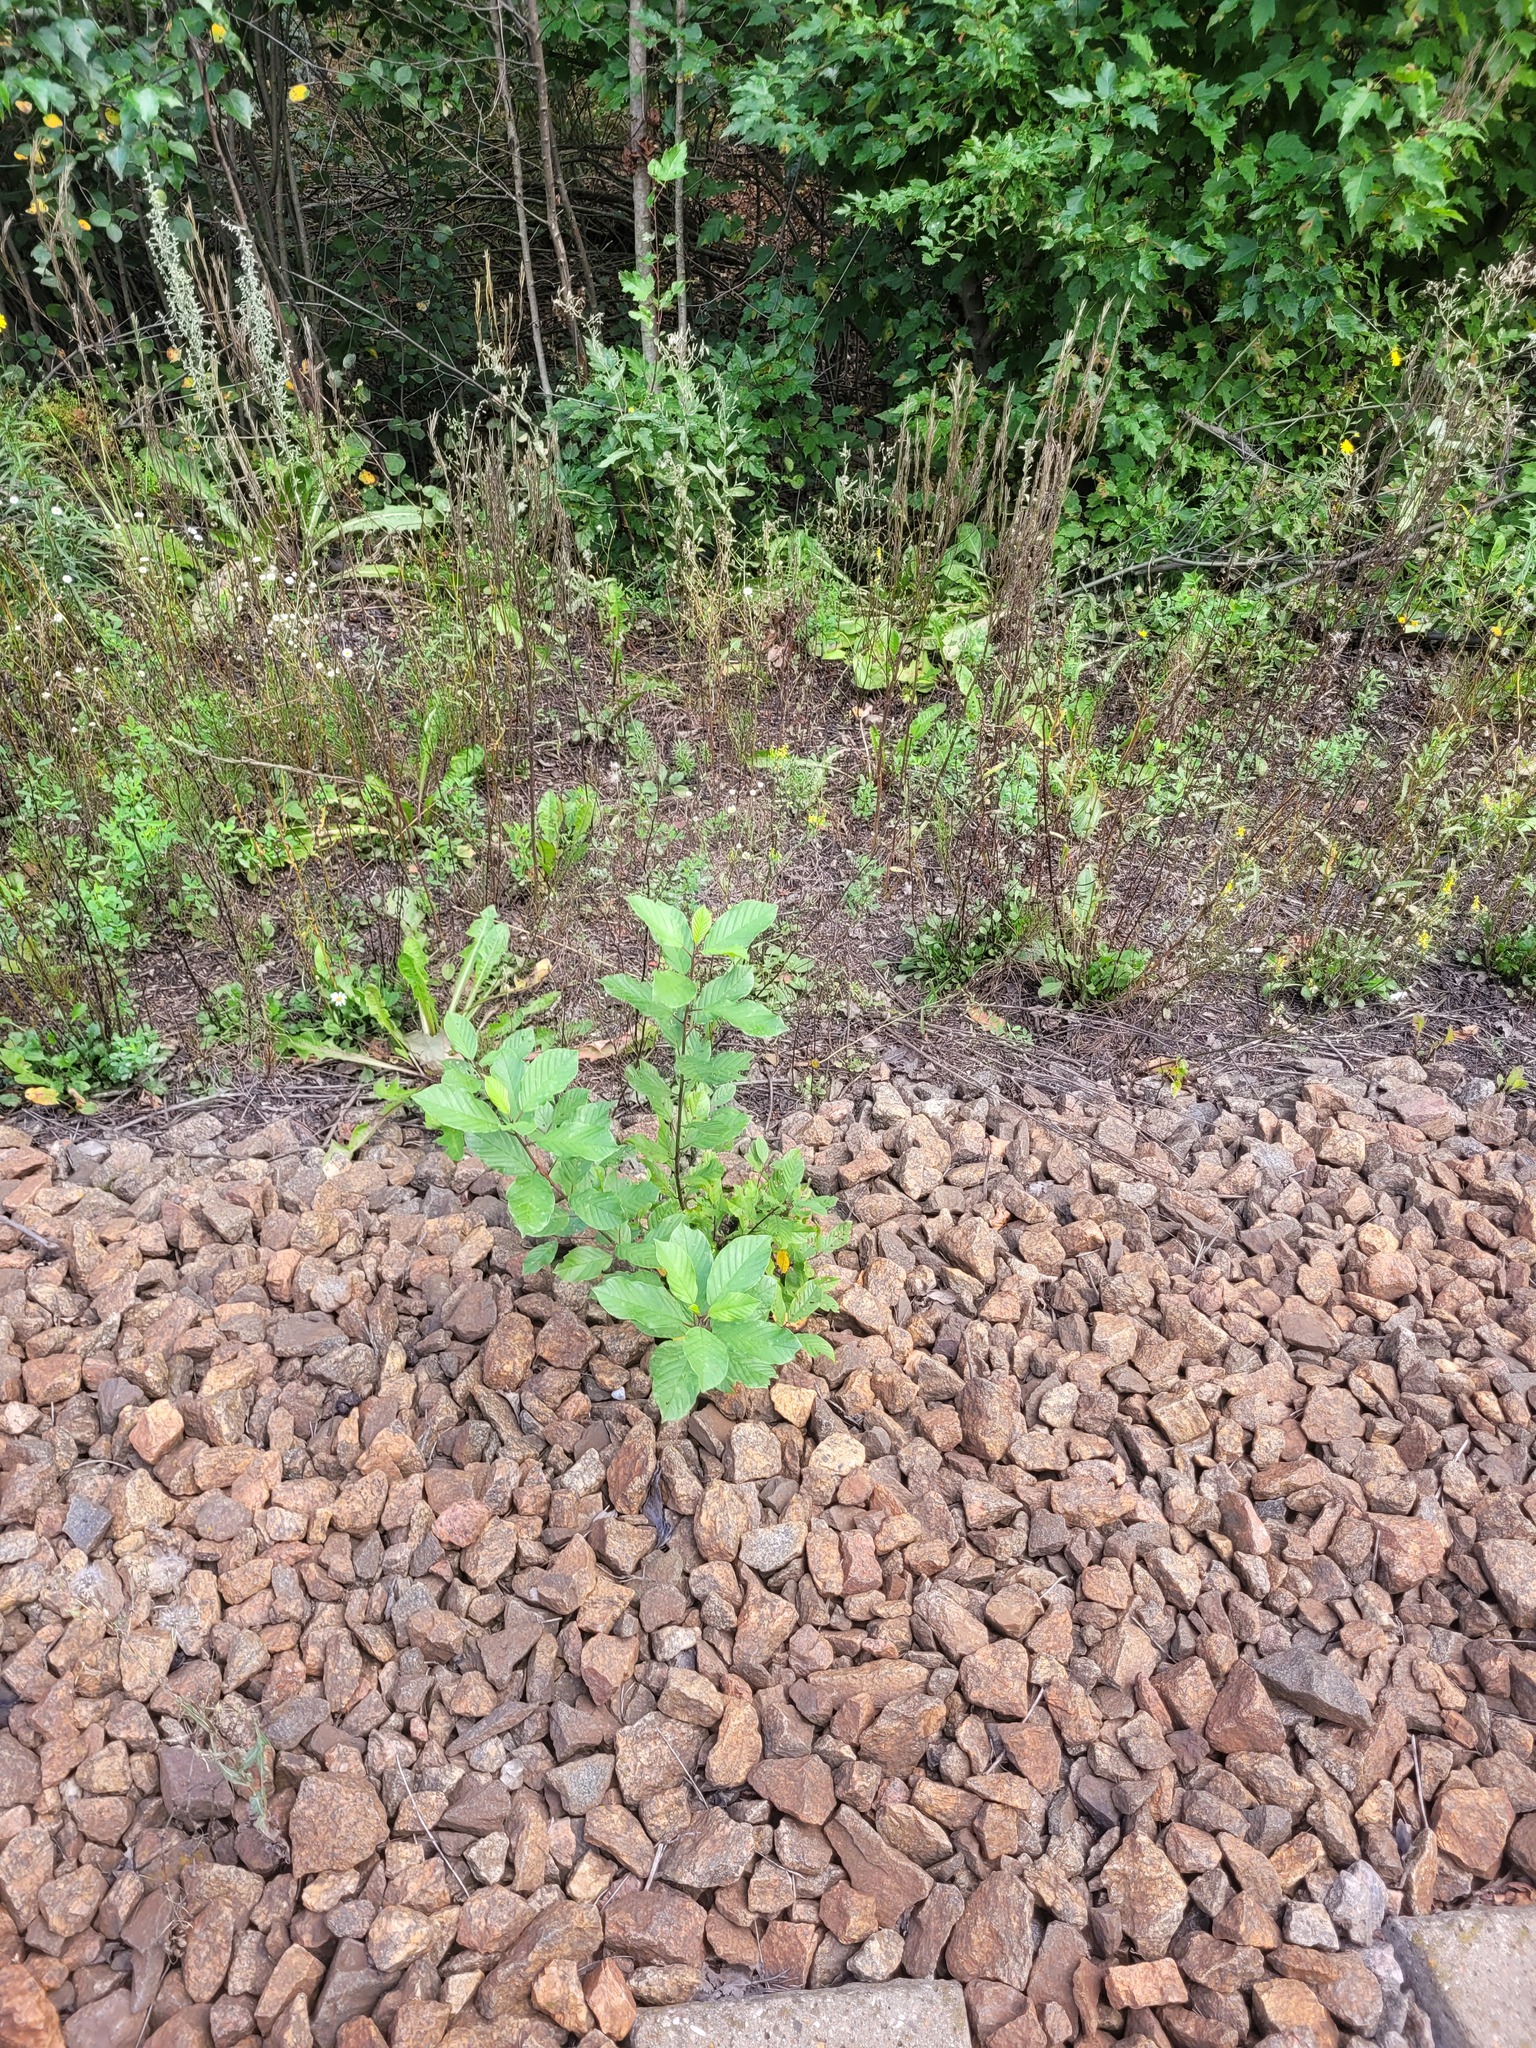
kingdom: Plantae
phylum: Tracheophyta
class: Magnoliopsida
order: Rosales
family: Rhamnaceae
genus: Frangula
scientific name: Frangula alnus
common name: Alder buckthorn
